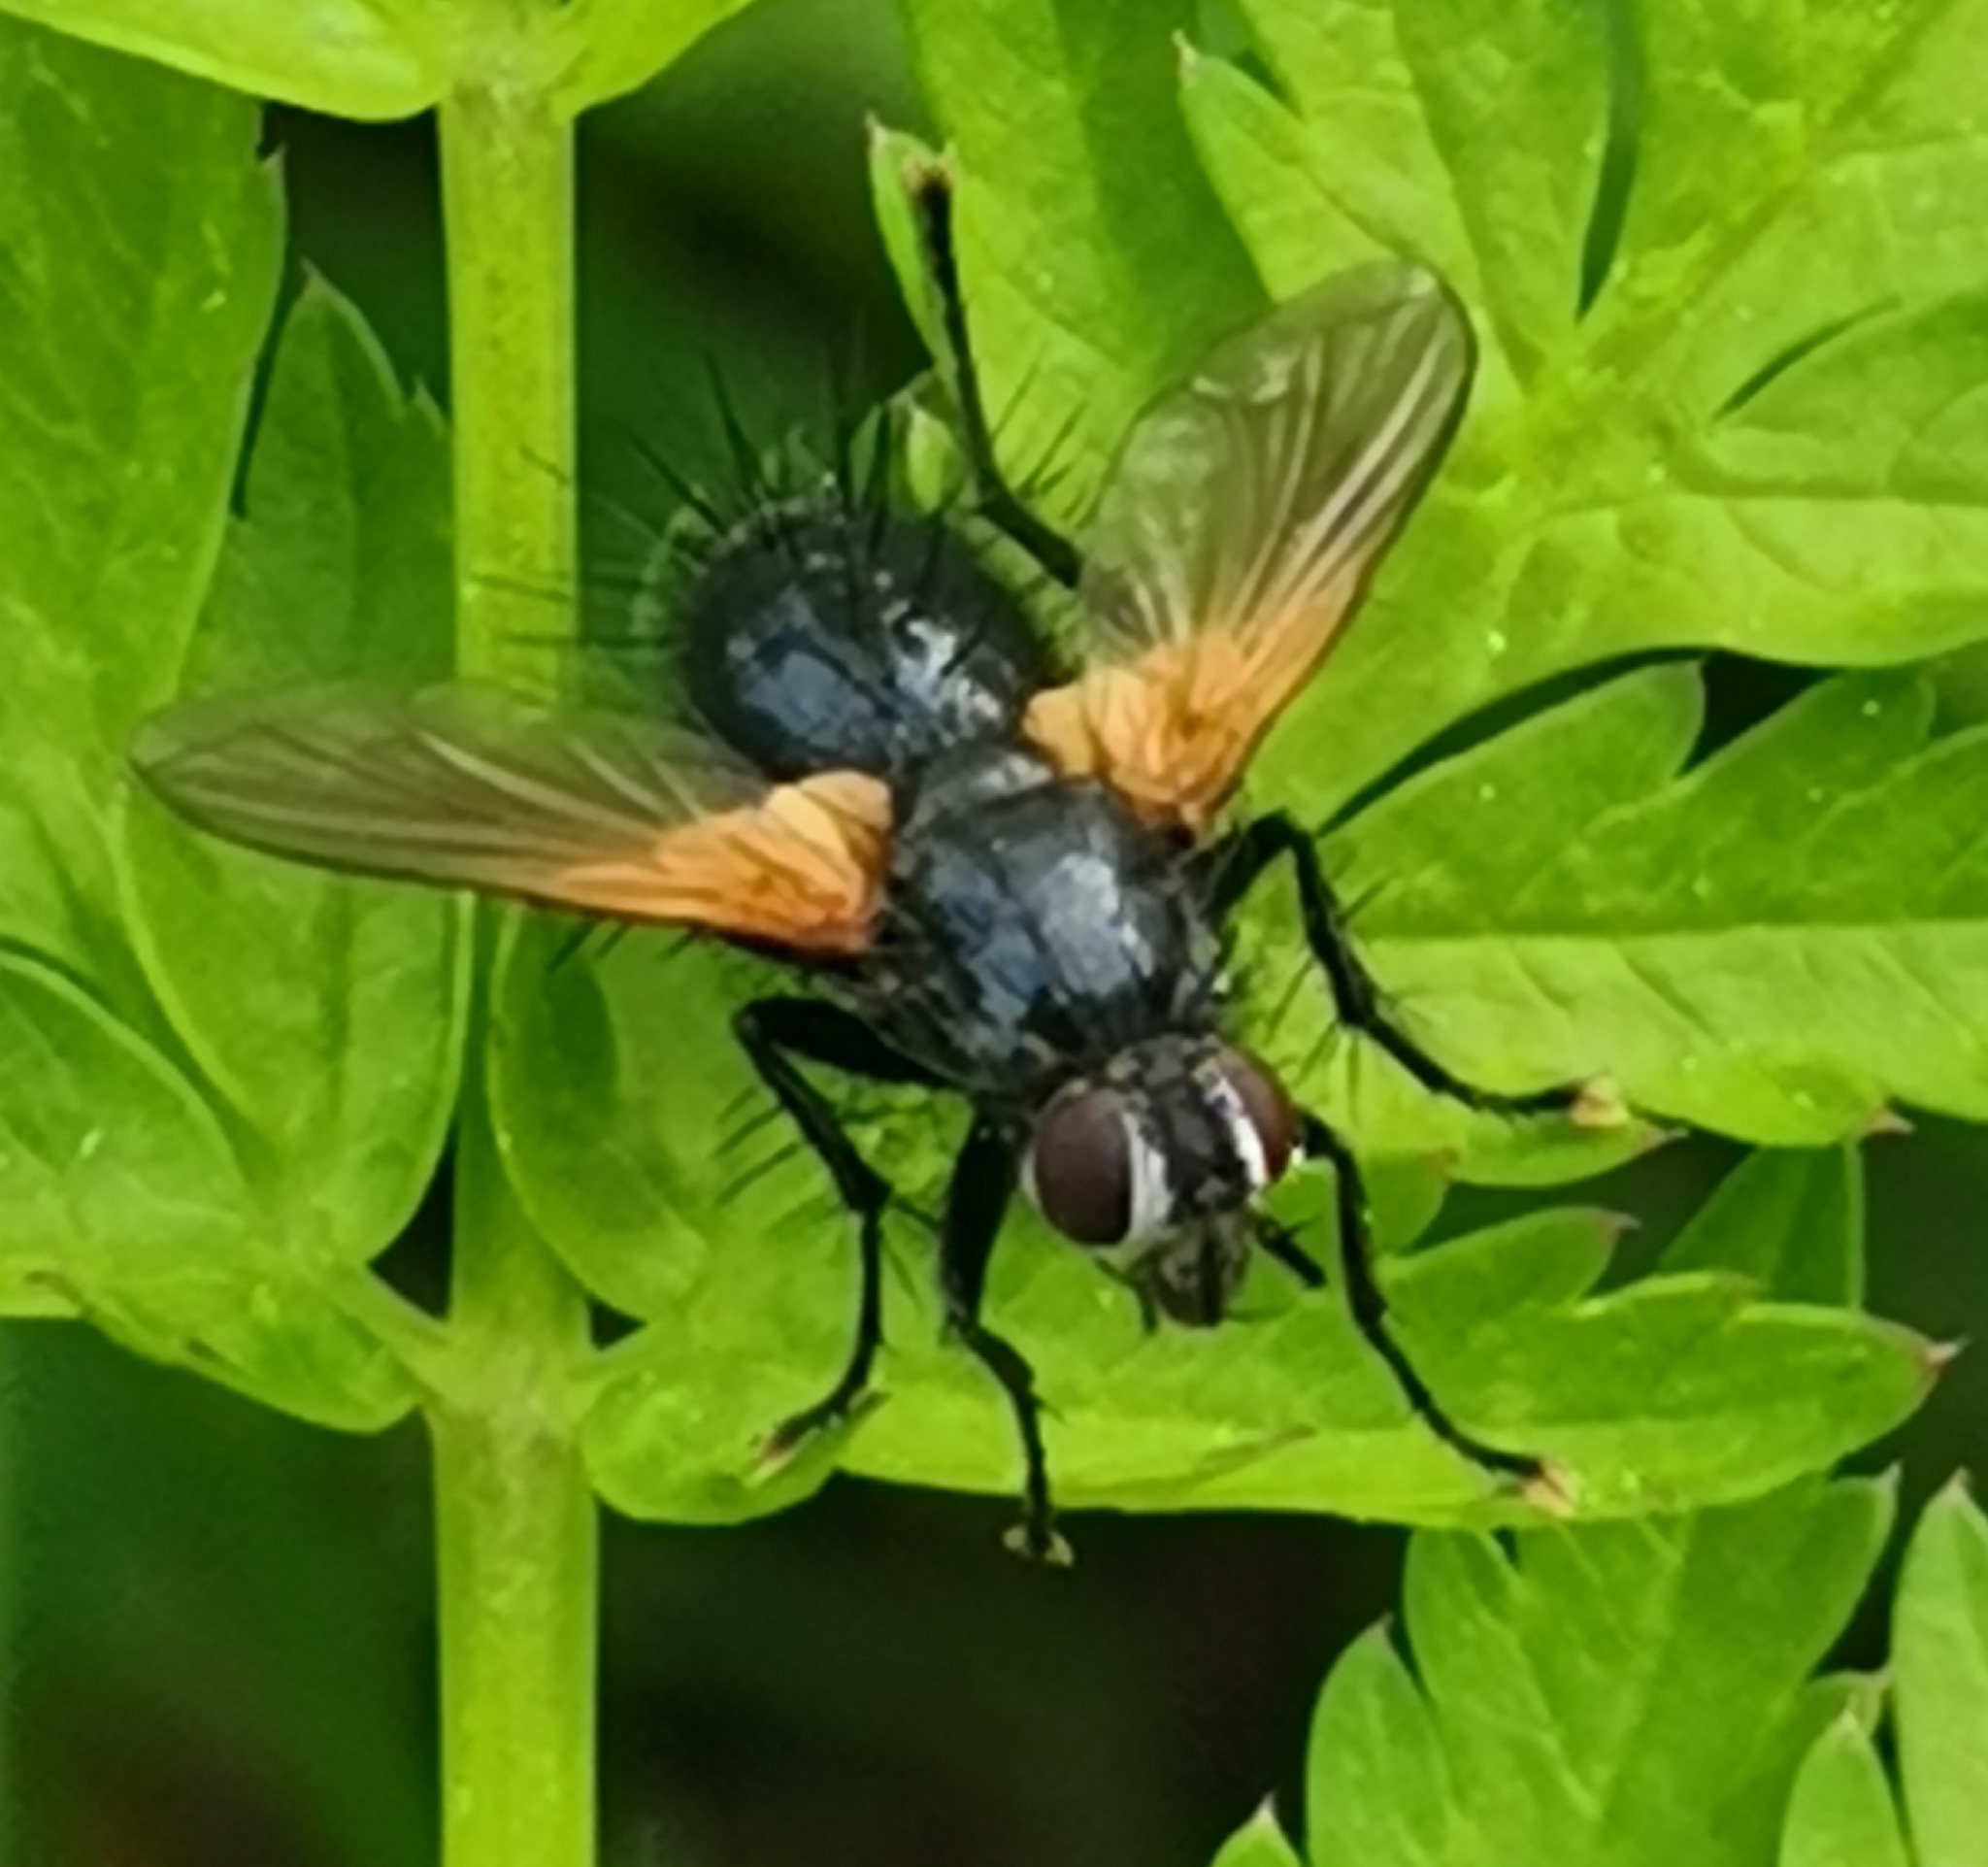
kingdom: Animalia
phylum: Arthropoda
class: Insecta
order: Diptera
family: Tachinidae
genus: Zophomyia
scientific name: Zophomyia temula
